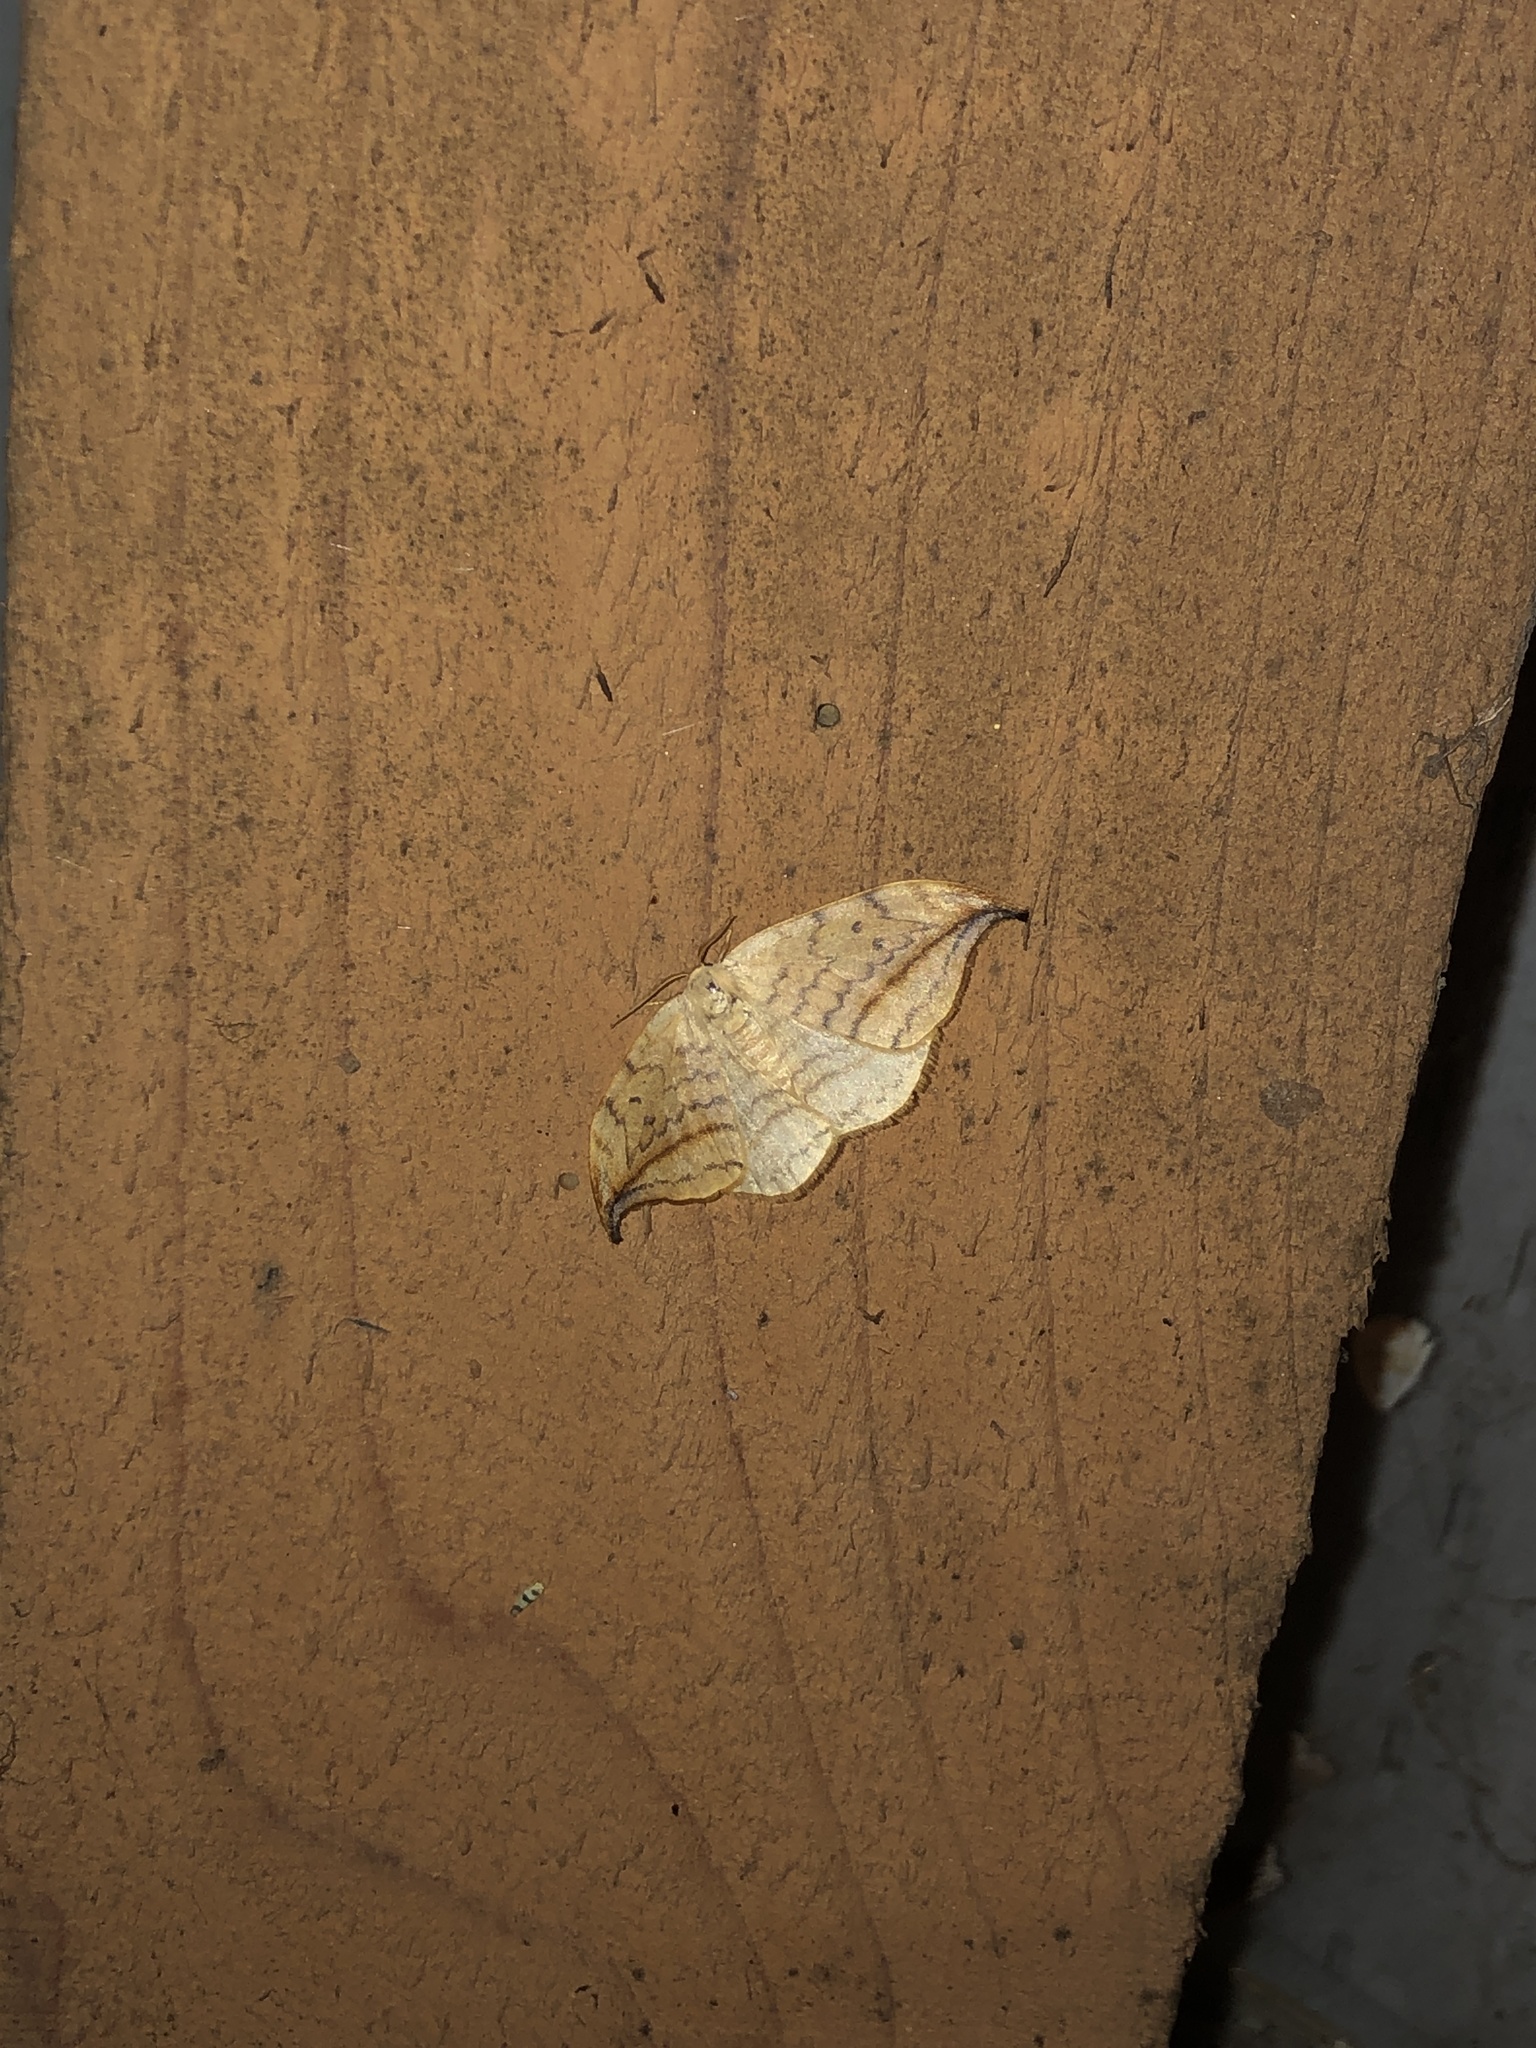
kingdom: Animalia
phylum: Arthropoda
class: Insecta
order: Lepidoptera
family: Drepanidae
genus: Drepana
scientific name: Drepana arcuata
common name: Arched hooktip moth
